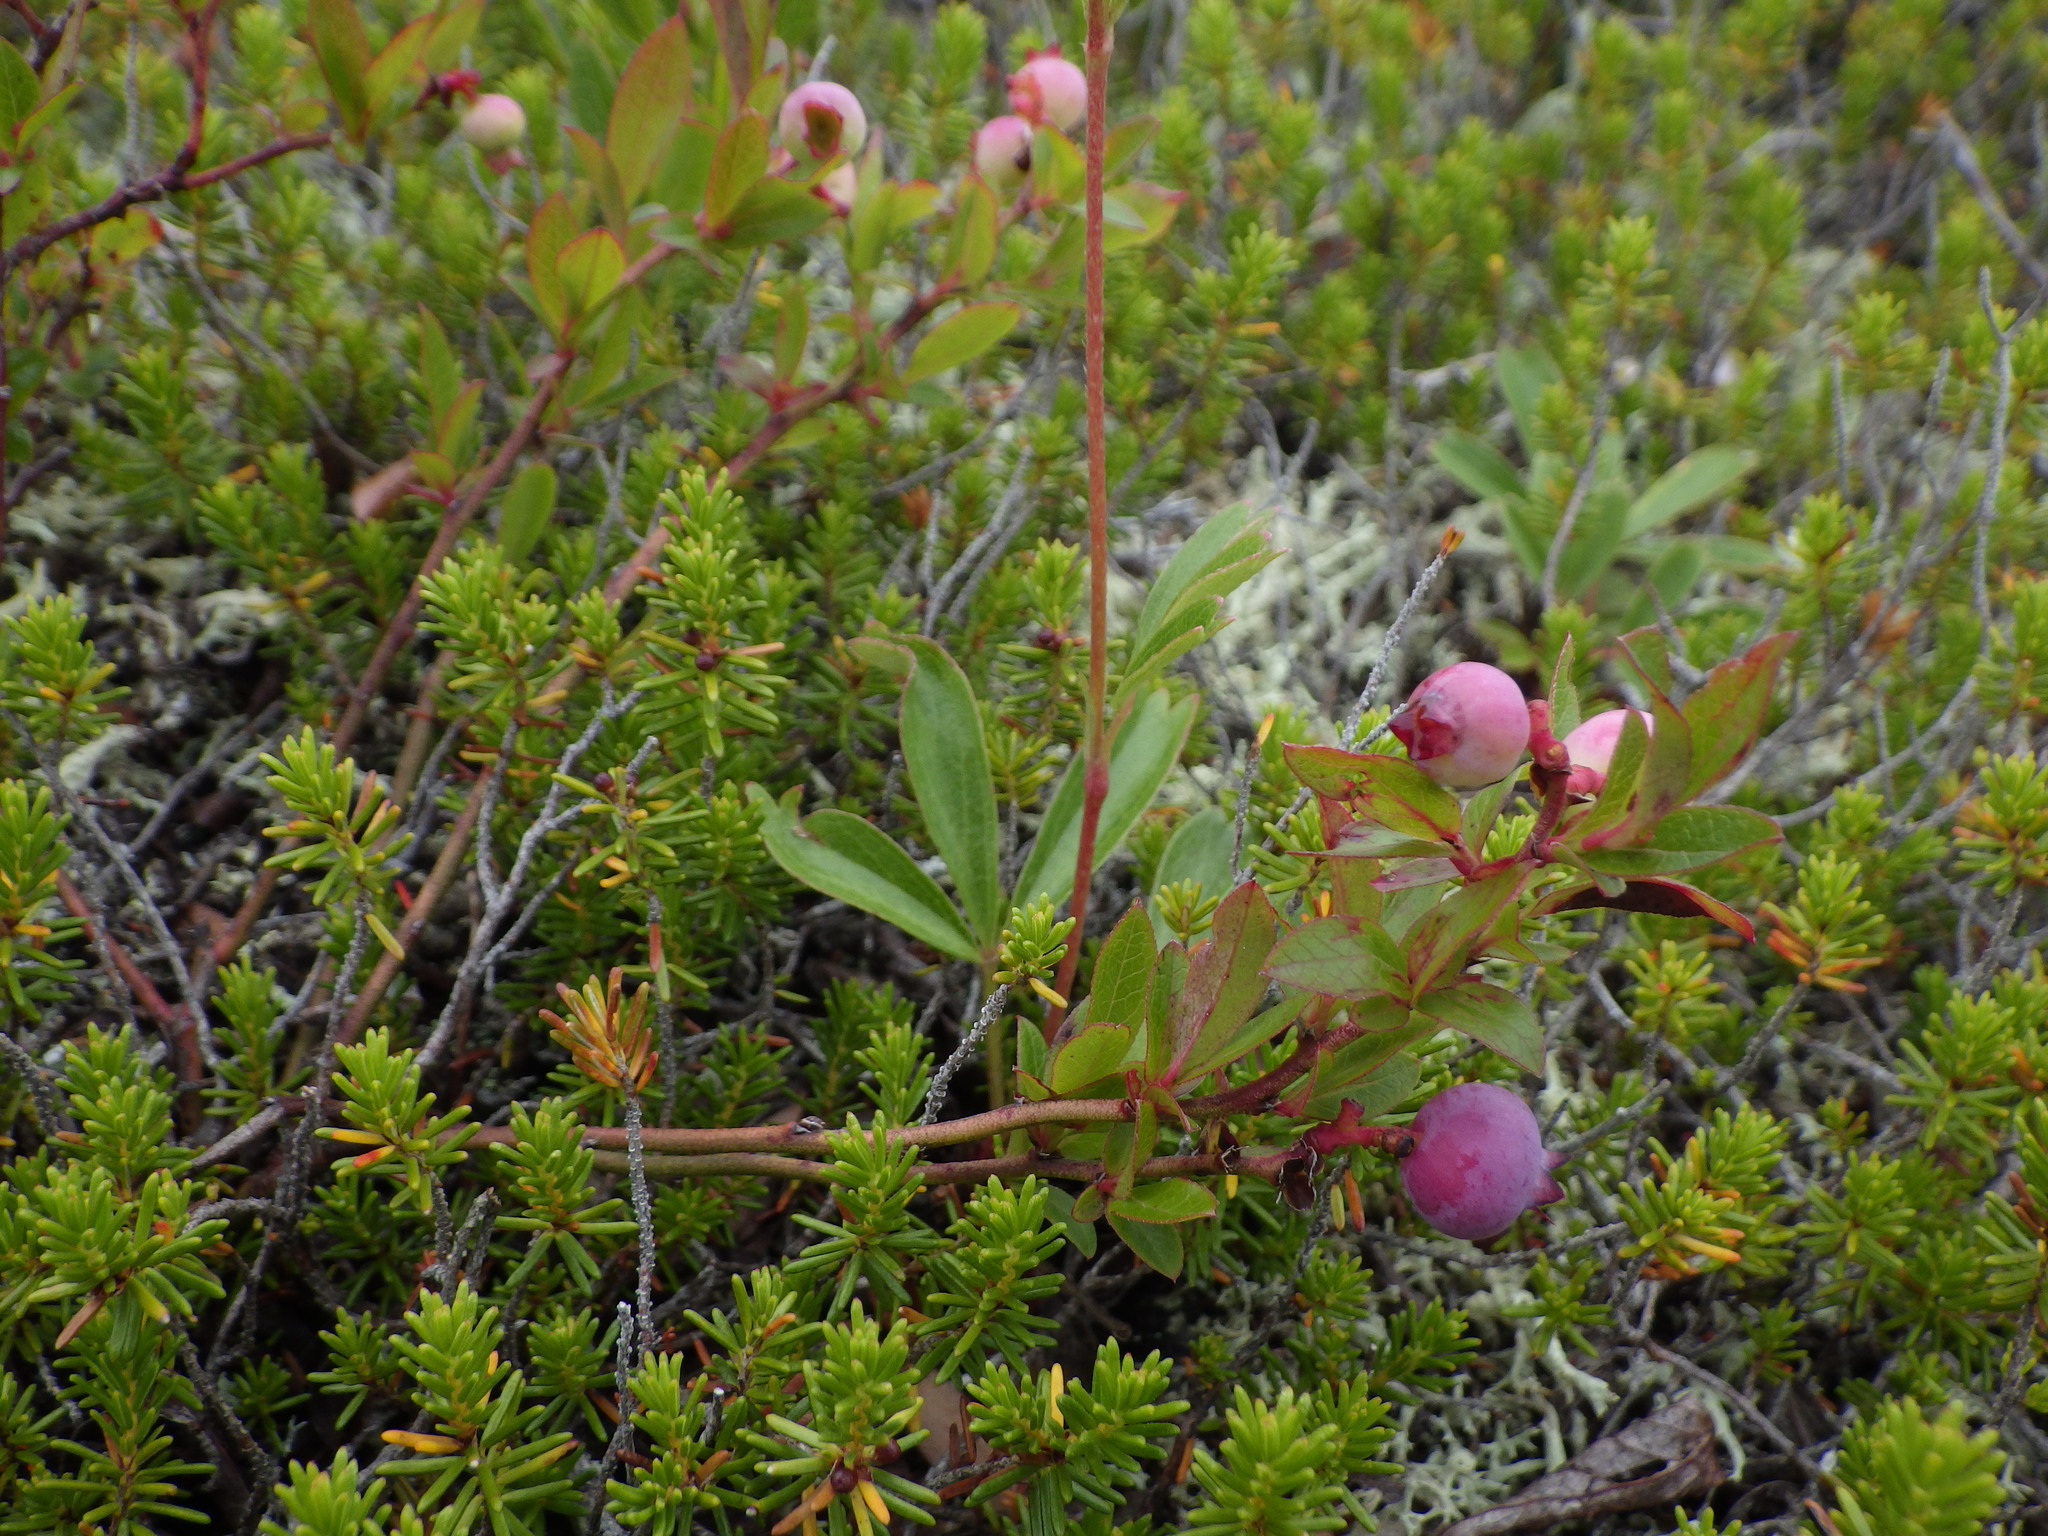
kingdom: Plantae
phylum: Tracheophyta
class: Magnoliopsida
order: Ericales
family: Ericaceae
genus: Vaccinium
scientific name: Vaccinium angustifolium
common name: Early lowbush blueberry
